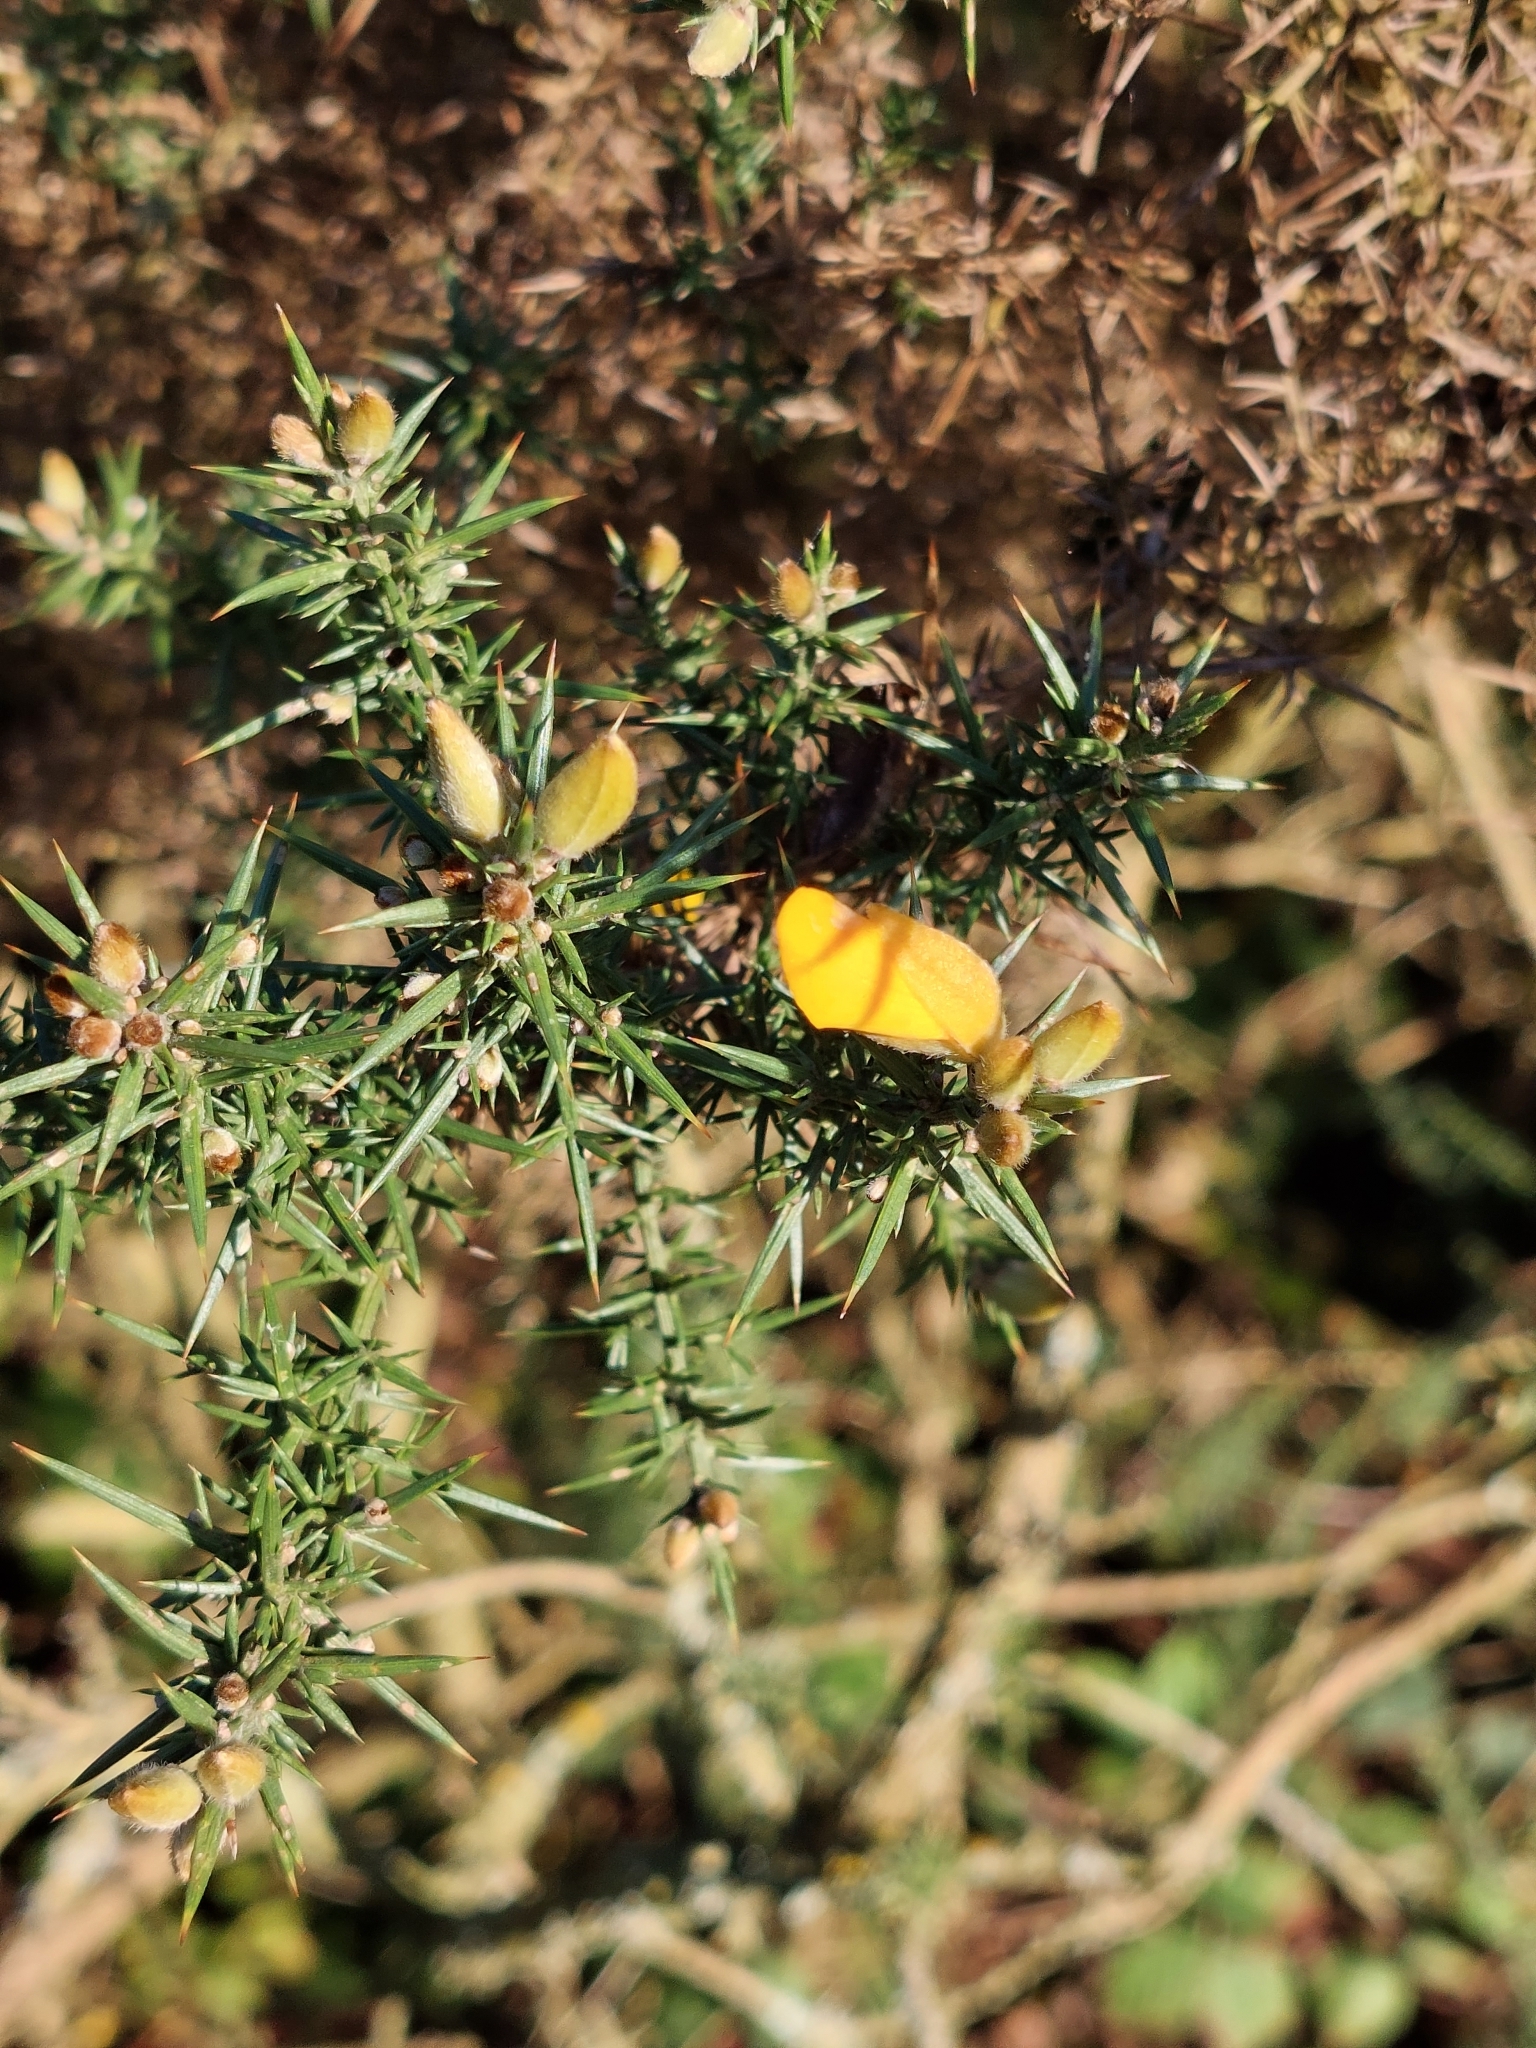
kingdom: Plantae
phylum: Tracheophyta
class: Magnoliopsida
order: Fabales
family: Fabaceae
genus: Ulex
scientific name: Ulex europaeus
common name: Common gorse
